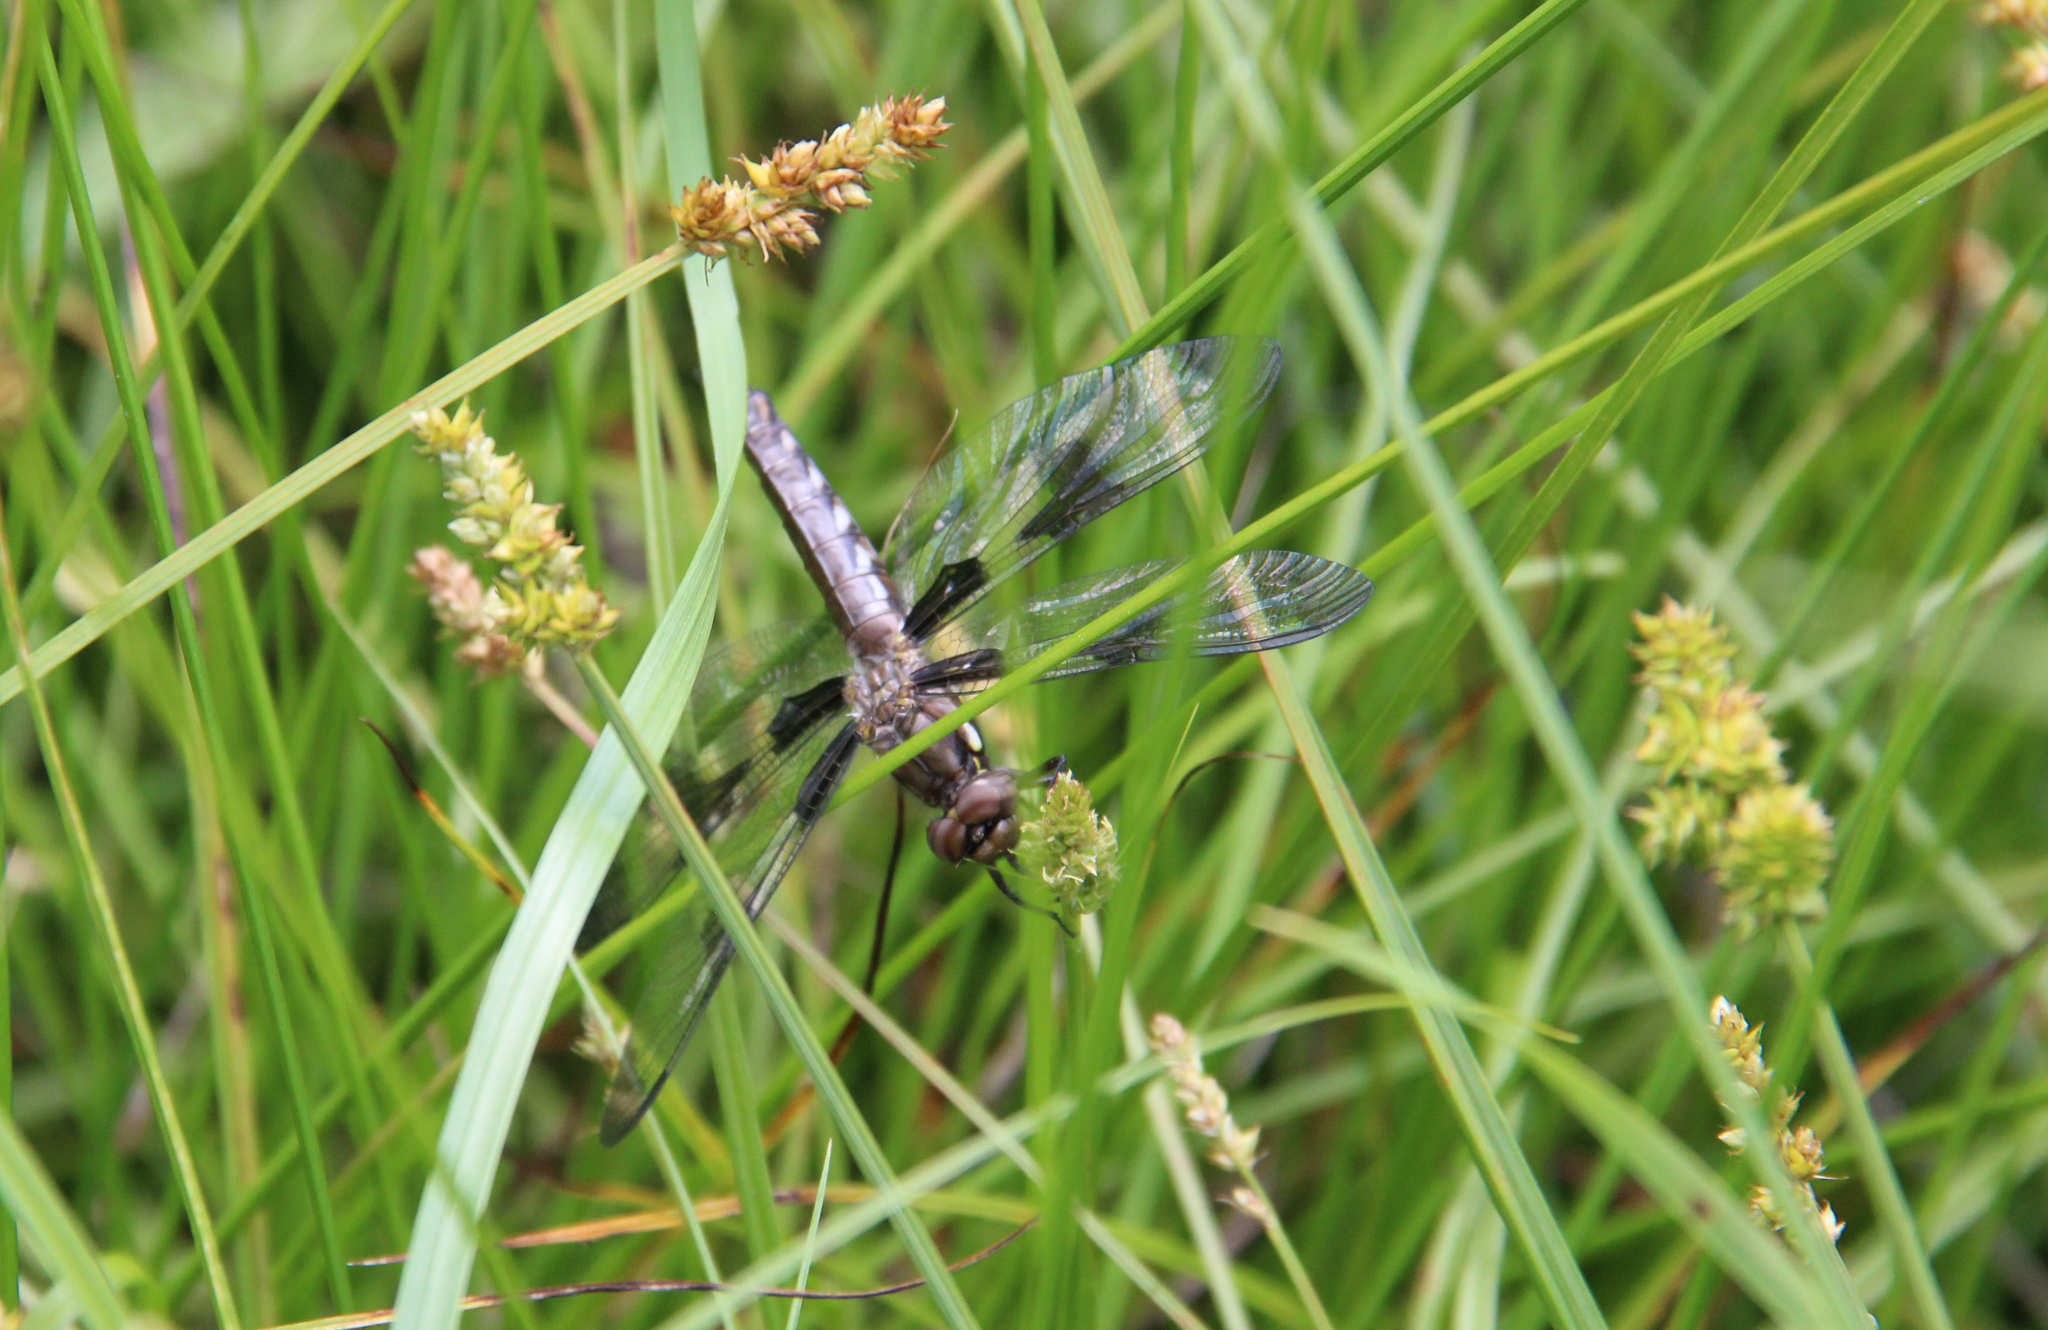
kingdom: Animalia
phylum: Arthropoda
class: Insecta
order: Odonata
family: Libellulidae
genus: Plathemis
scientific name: Plathemis lydia
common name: Common whitetail
